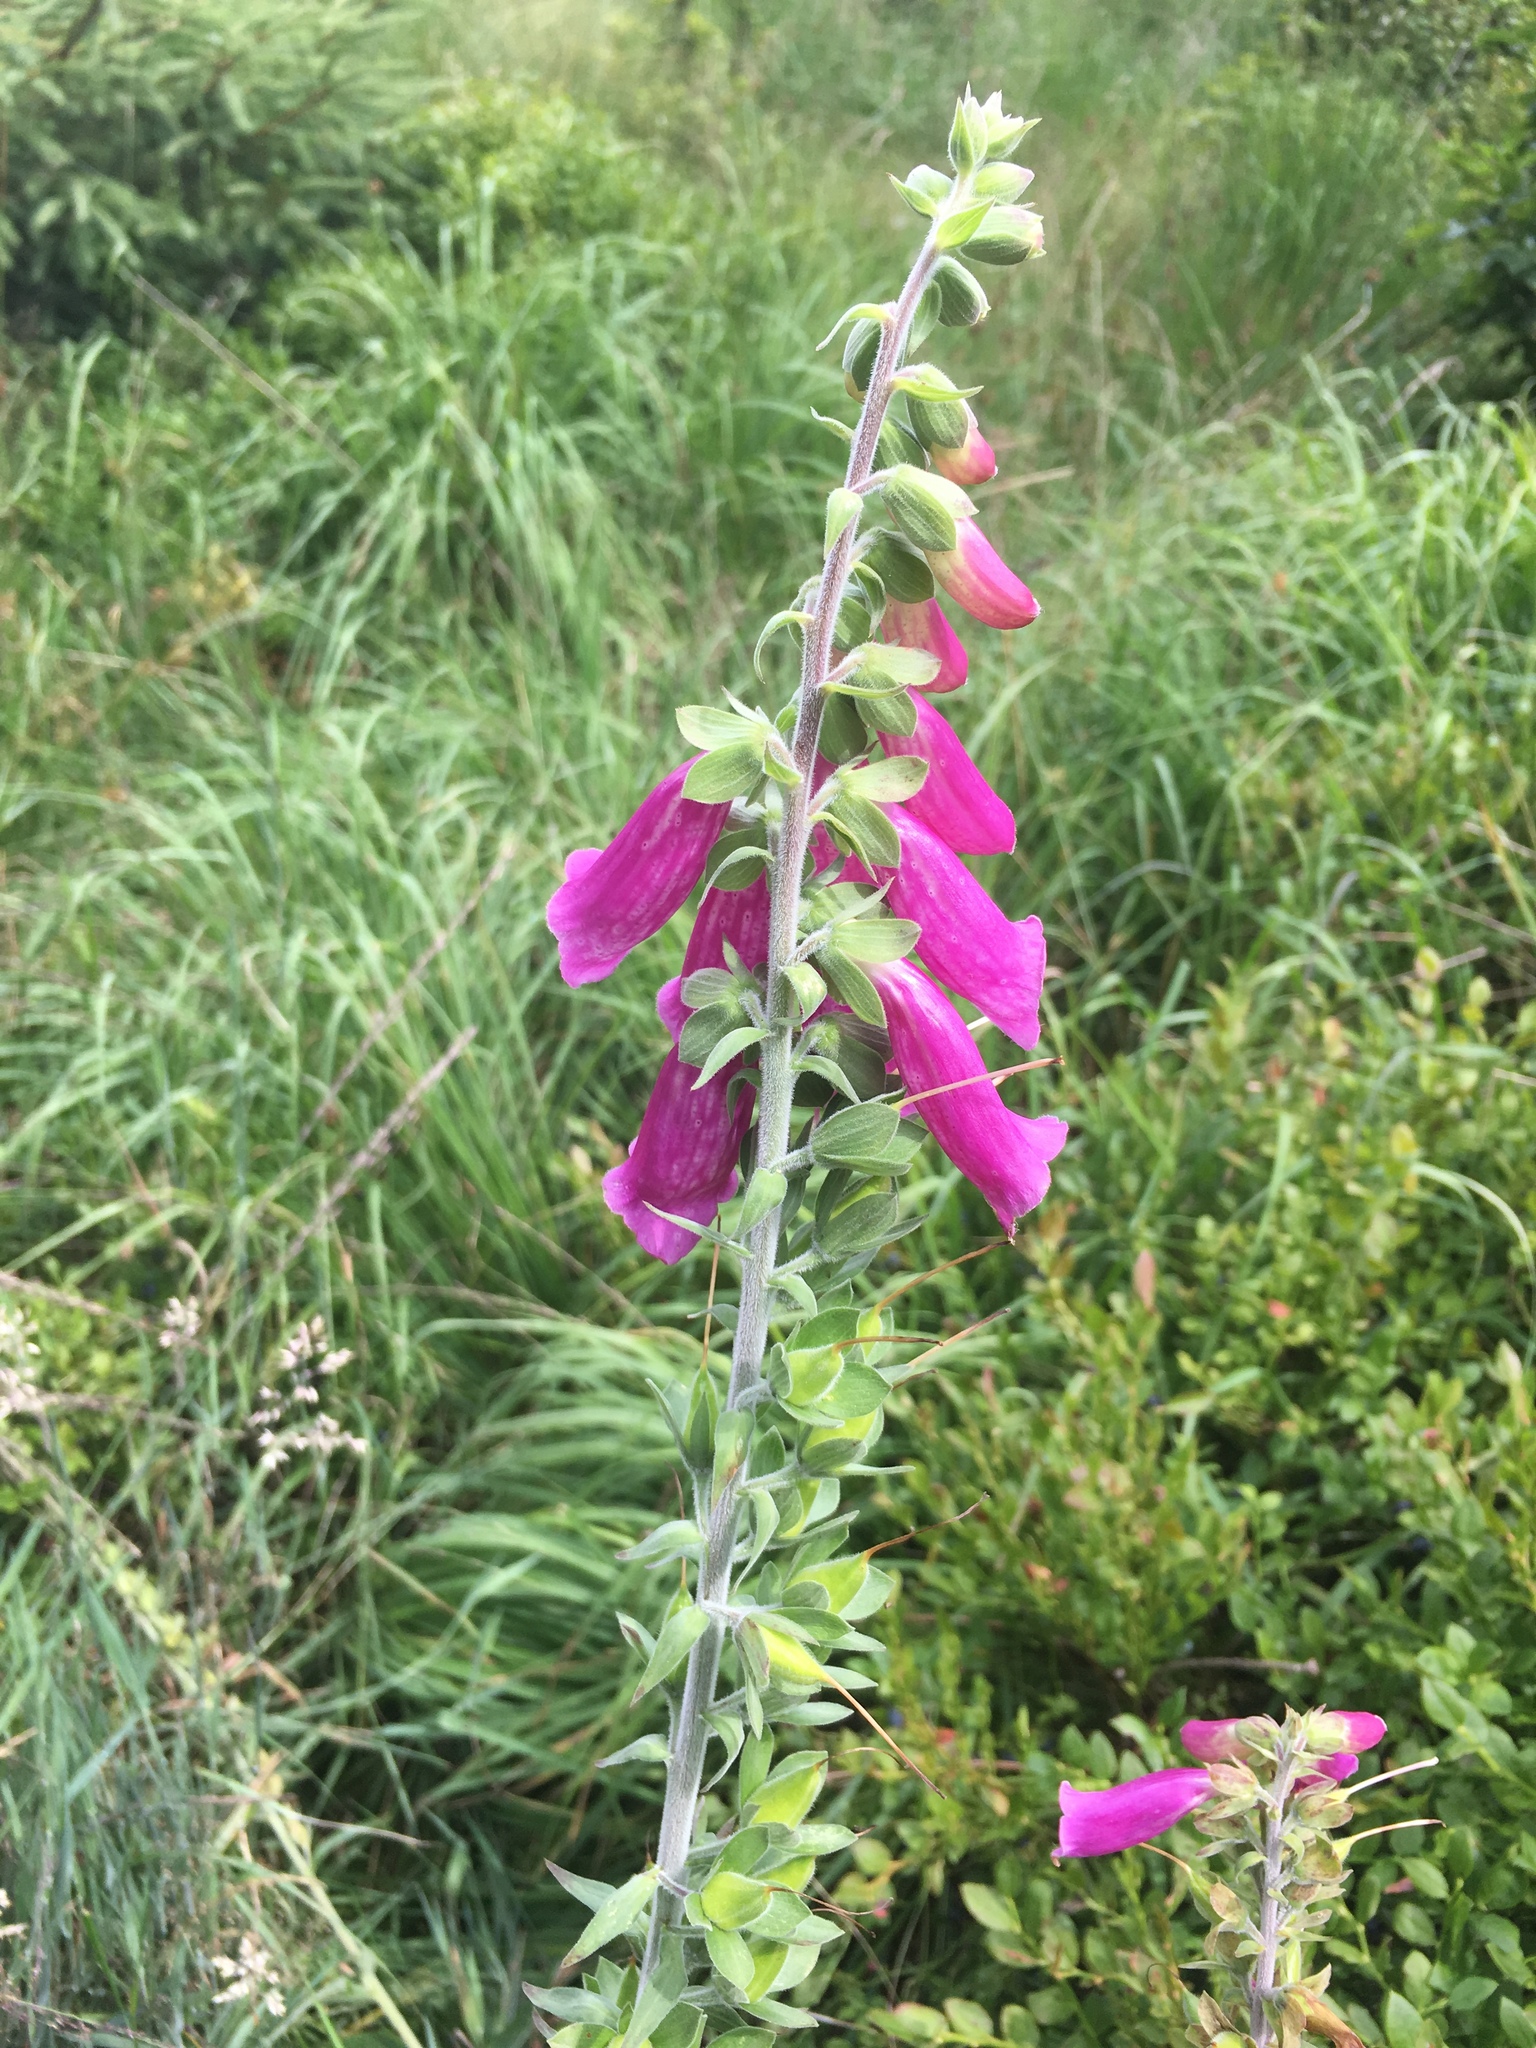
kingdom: Plantae
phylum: Tracheophyta
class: Magnoliopsida
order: Lamiales
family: Plantaginaceae
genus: Digitalis
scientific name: Digitalis purpurea
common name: Foxglove
